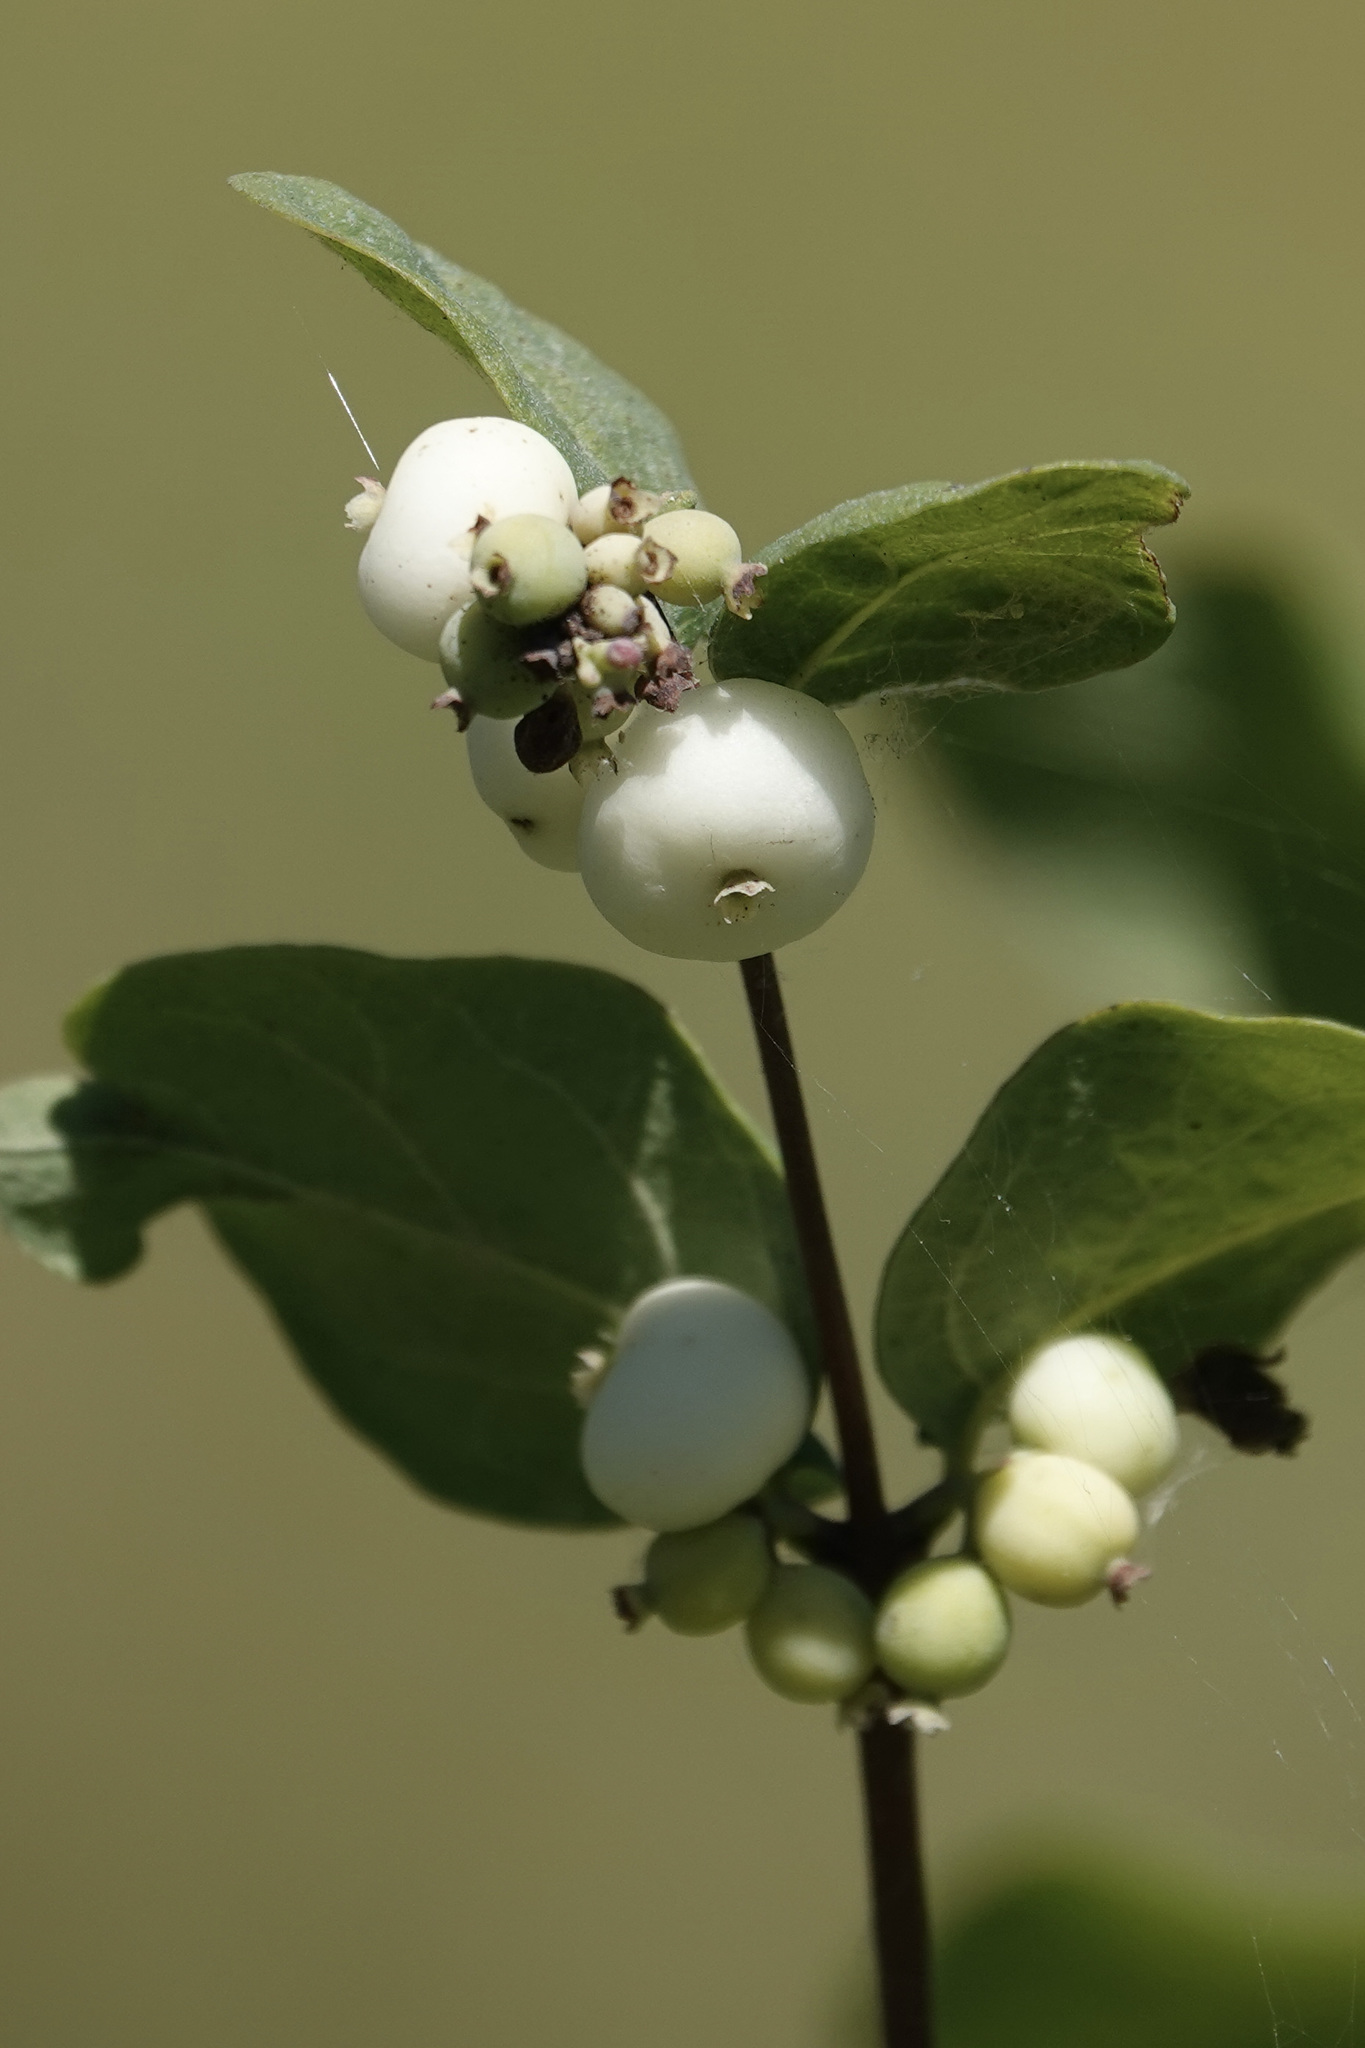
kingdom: Plantae
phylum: Tracheophyta
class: Magnoliopsida
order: Dipsacales
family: Caprifoliaceae
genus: Symphoricarpos
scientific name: Symphoricarpos albus
